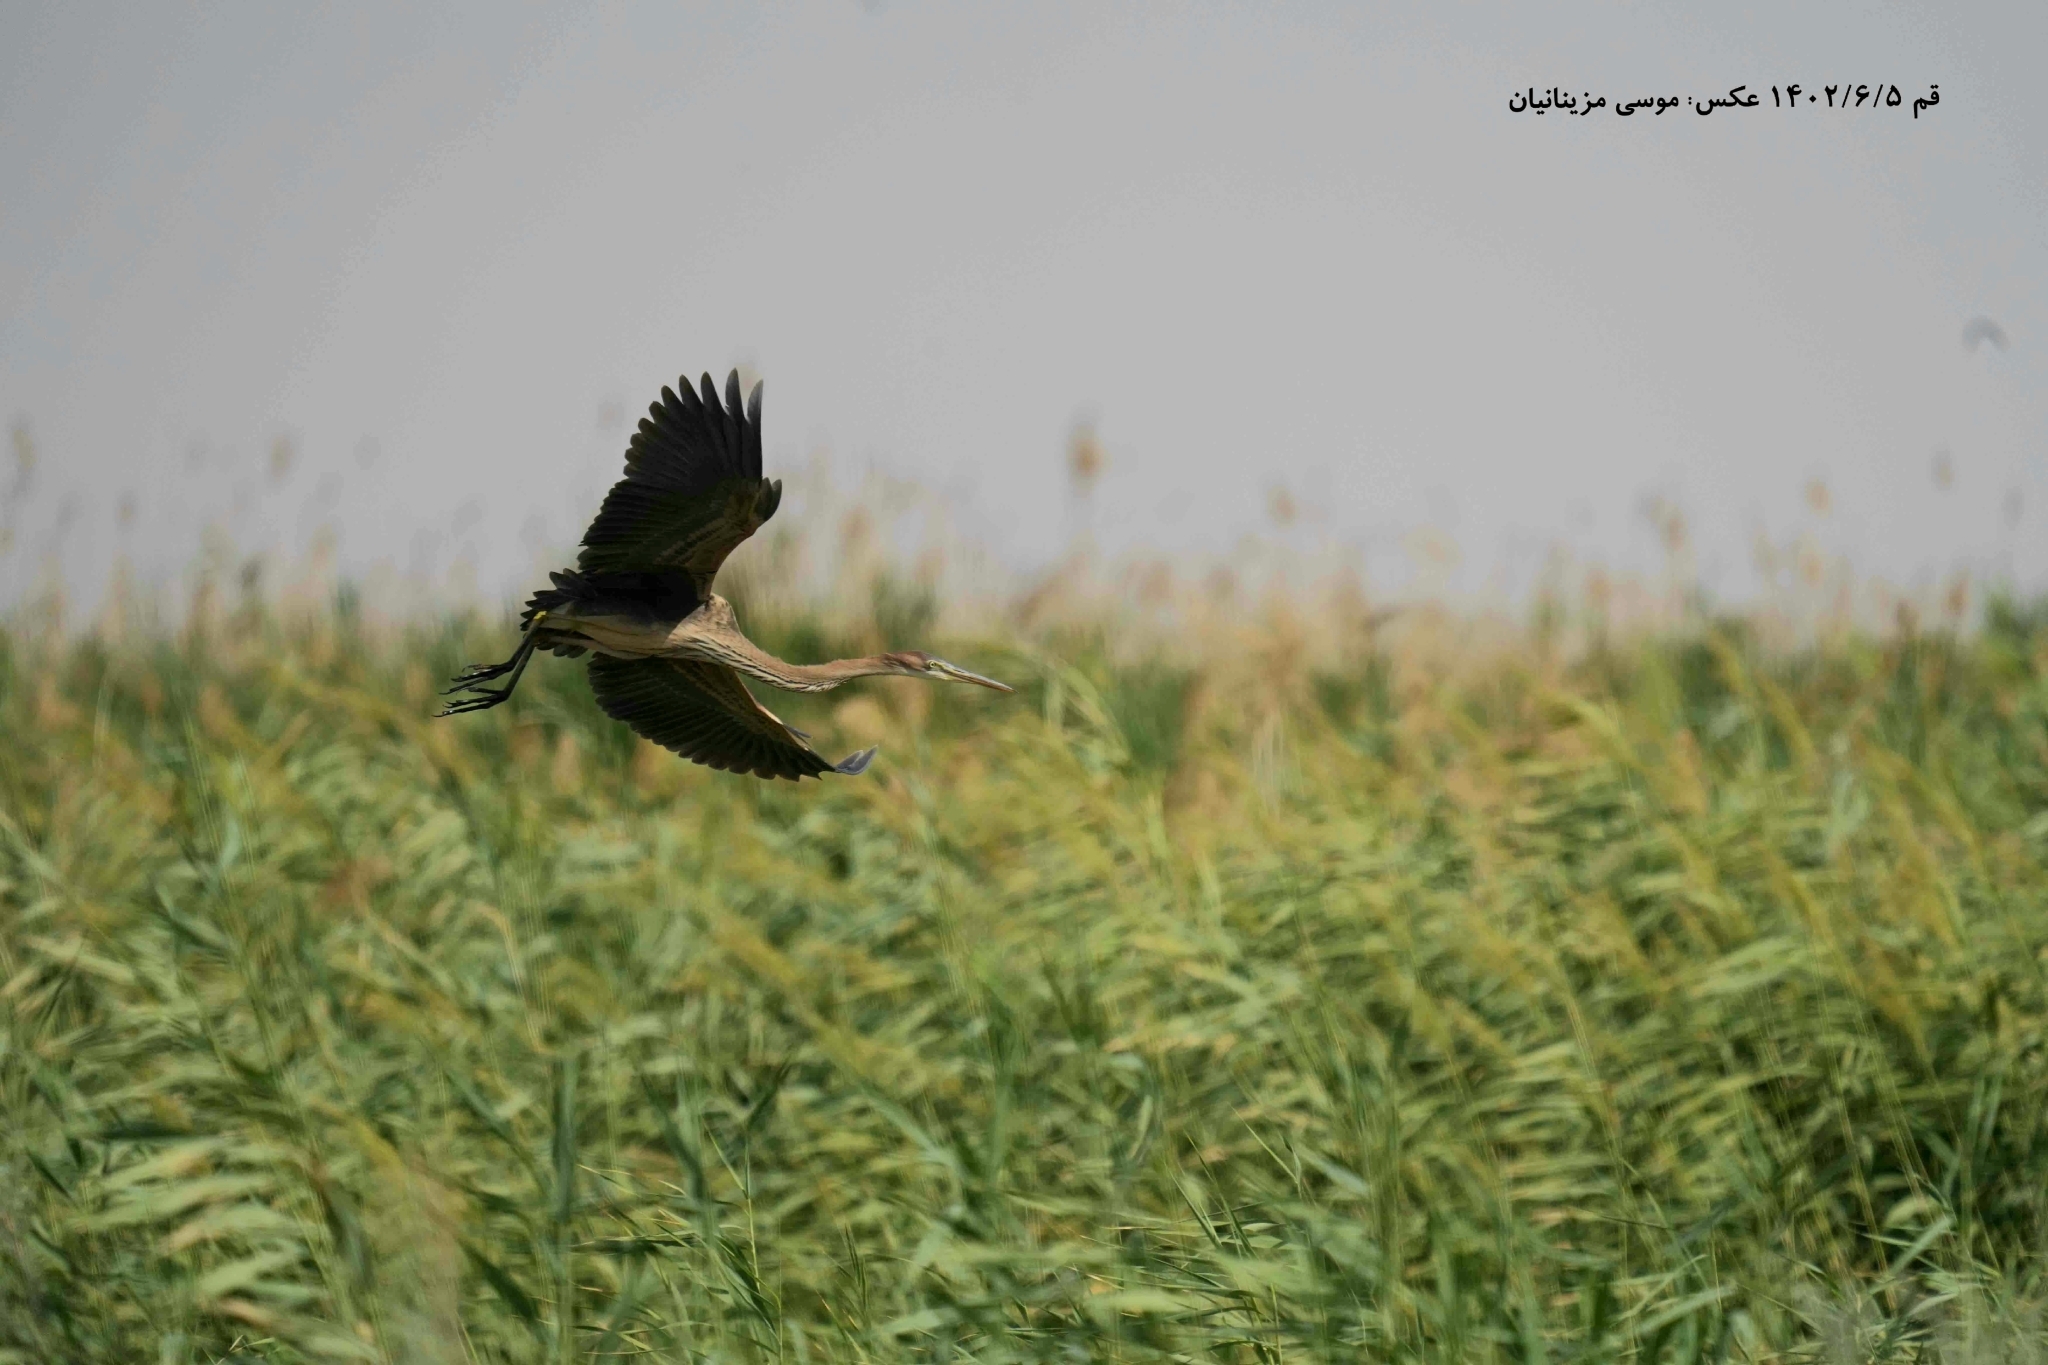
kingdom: Animalia
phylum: Chordata
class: Aves
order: Pelecaniformes
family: Ardeidae
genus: Ardea
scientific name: Ardea purpurea
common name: Purple heron
